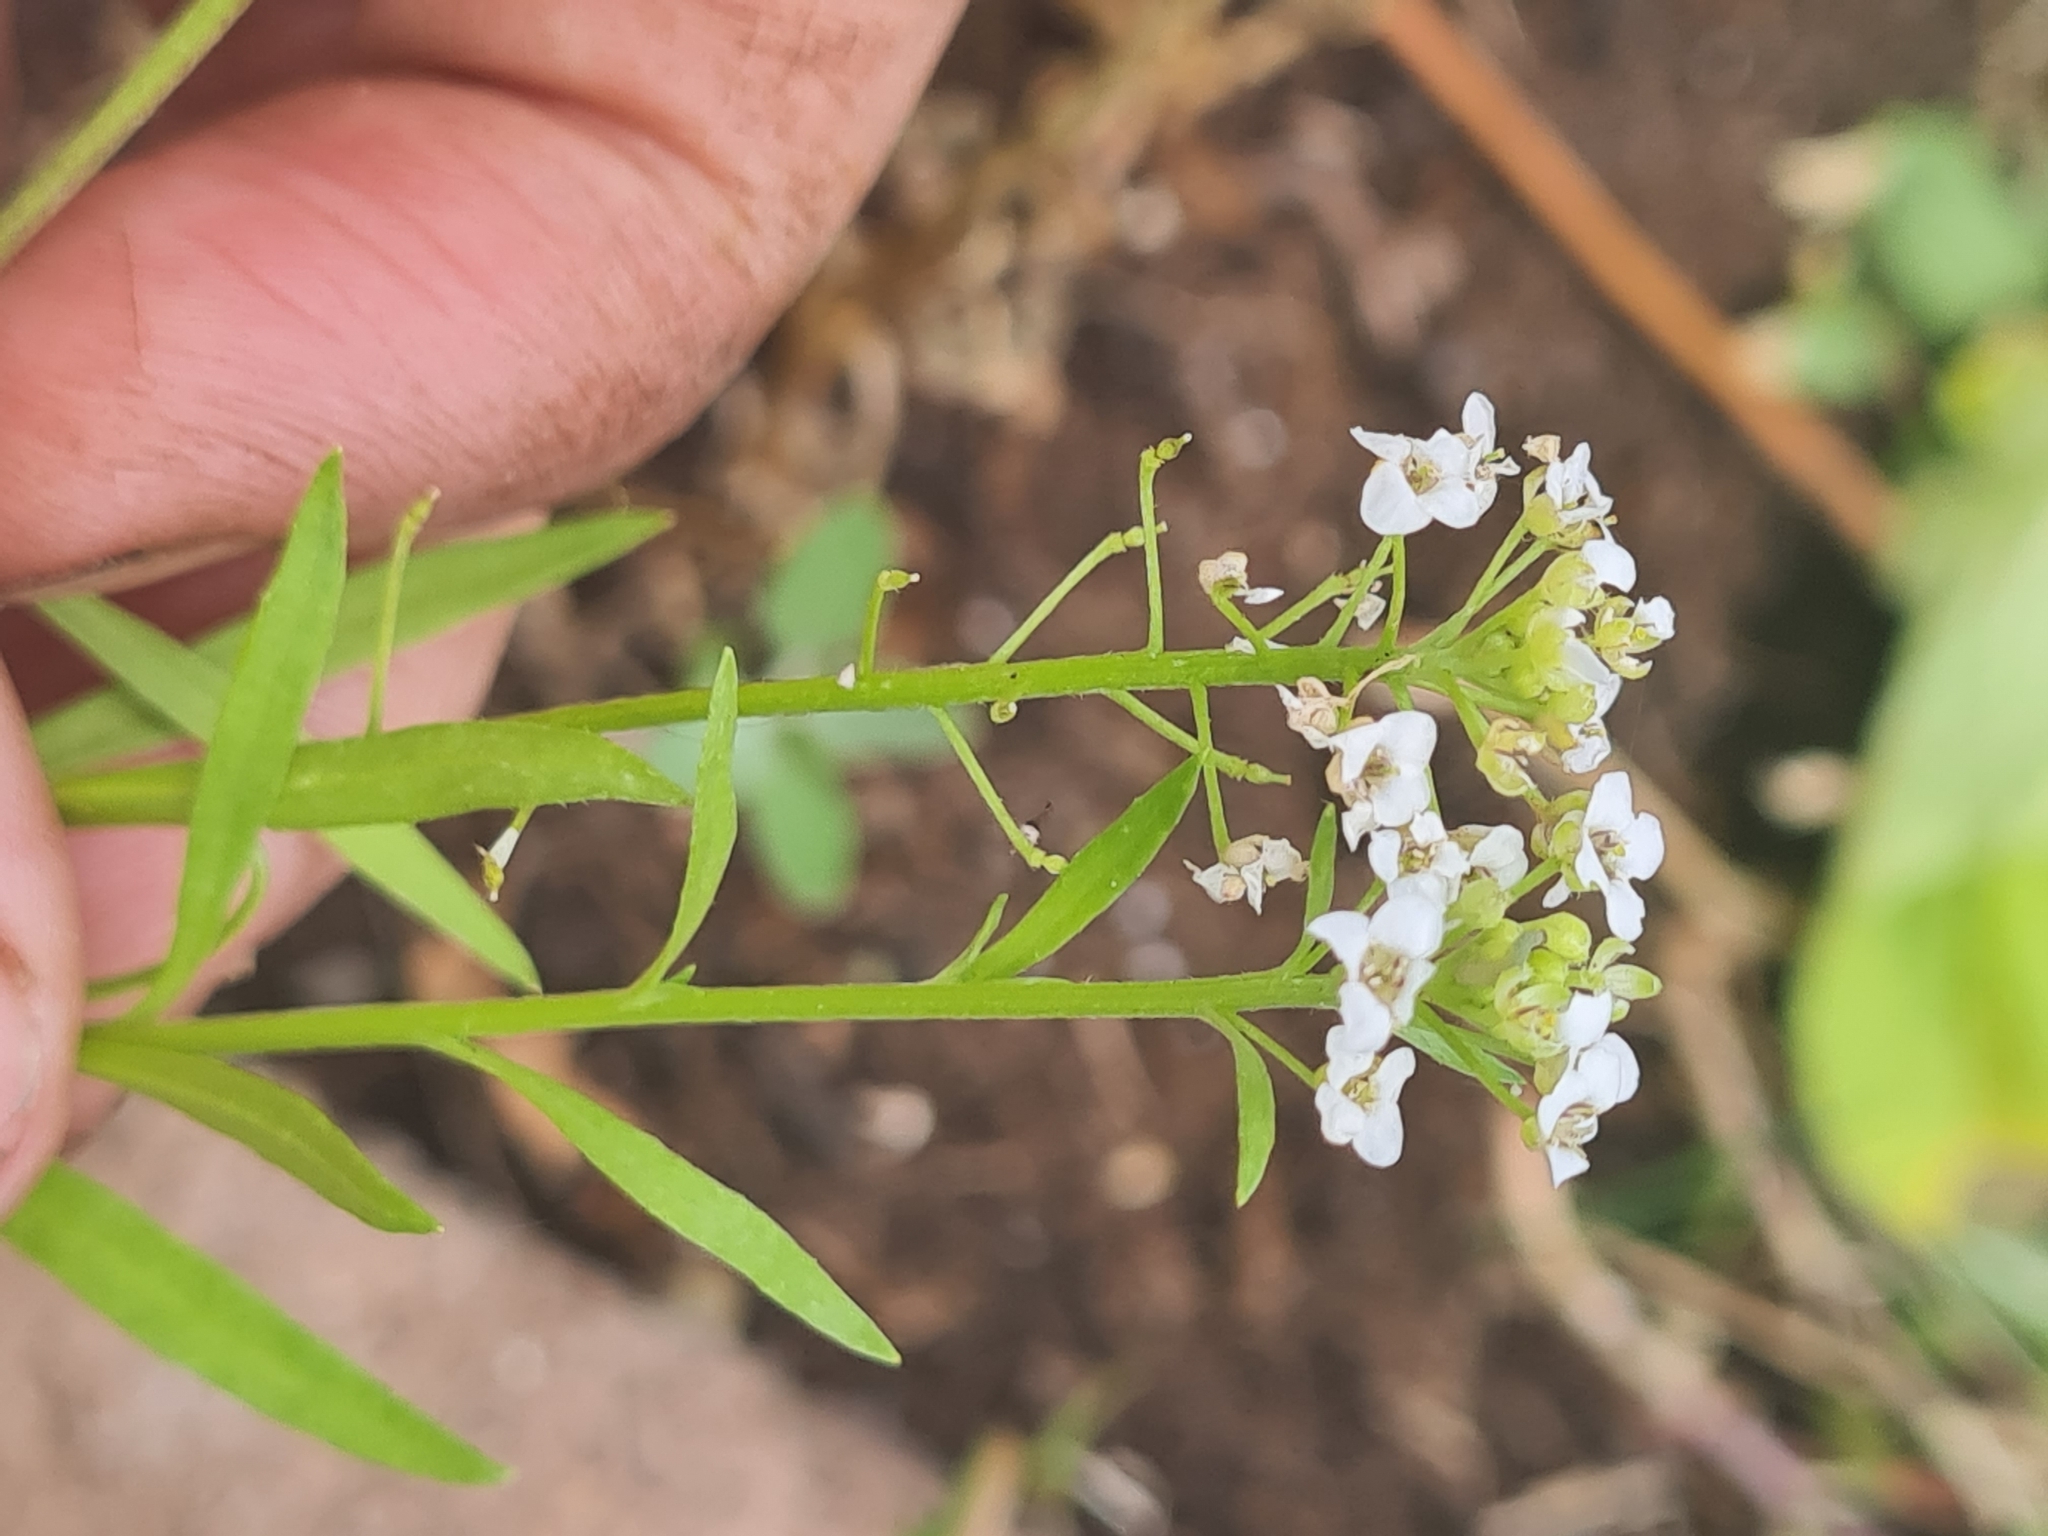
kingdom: Plantae
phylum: Tracheophyta
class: Magnoliopsida
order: Brassicales
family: Brassicaceae
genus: Lobularia
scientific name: Lobularia maritima
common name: Sweet alison
